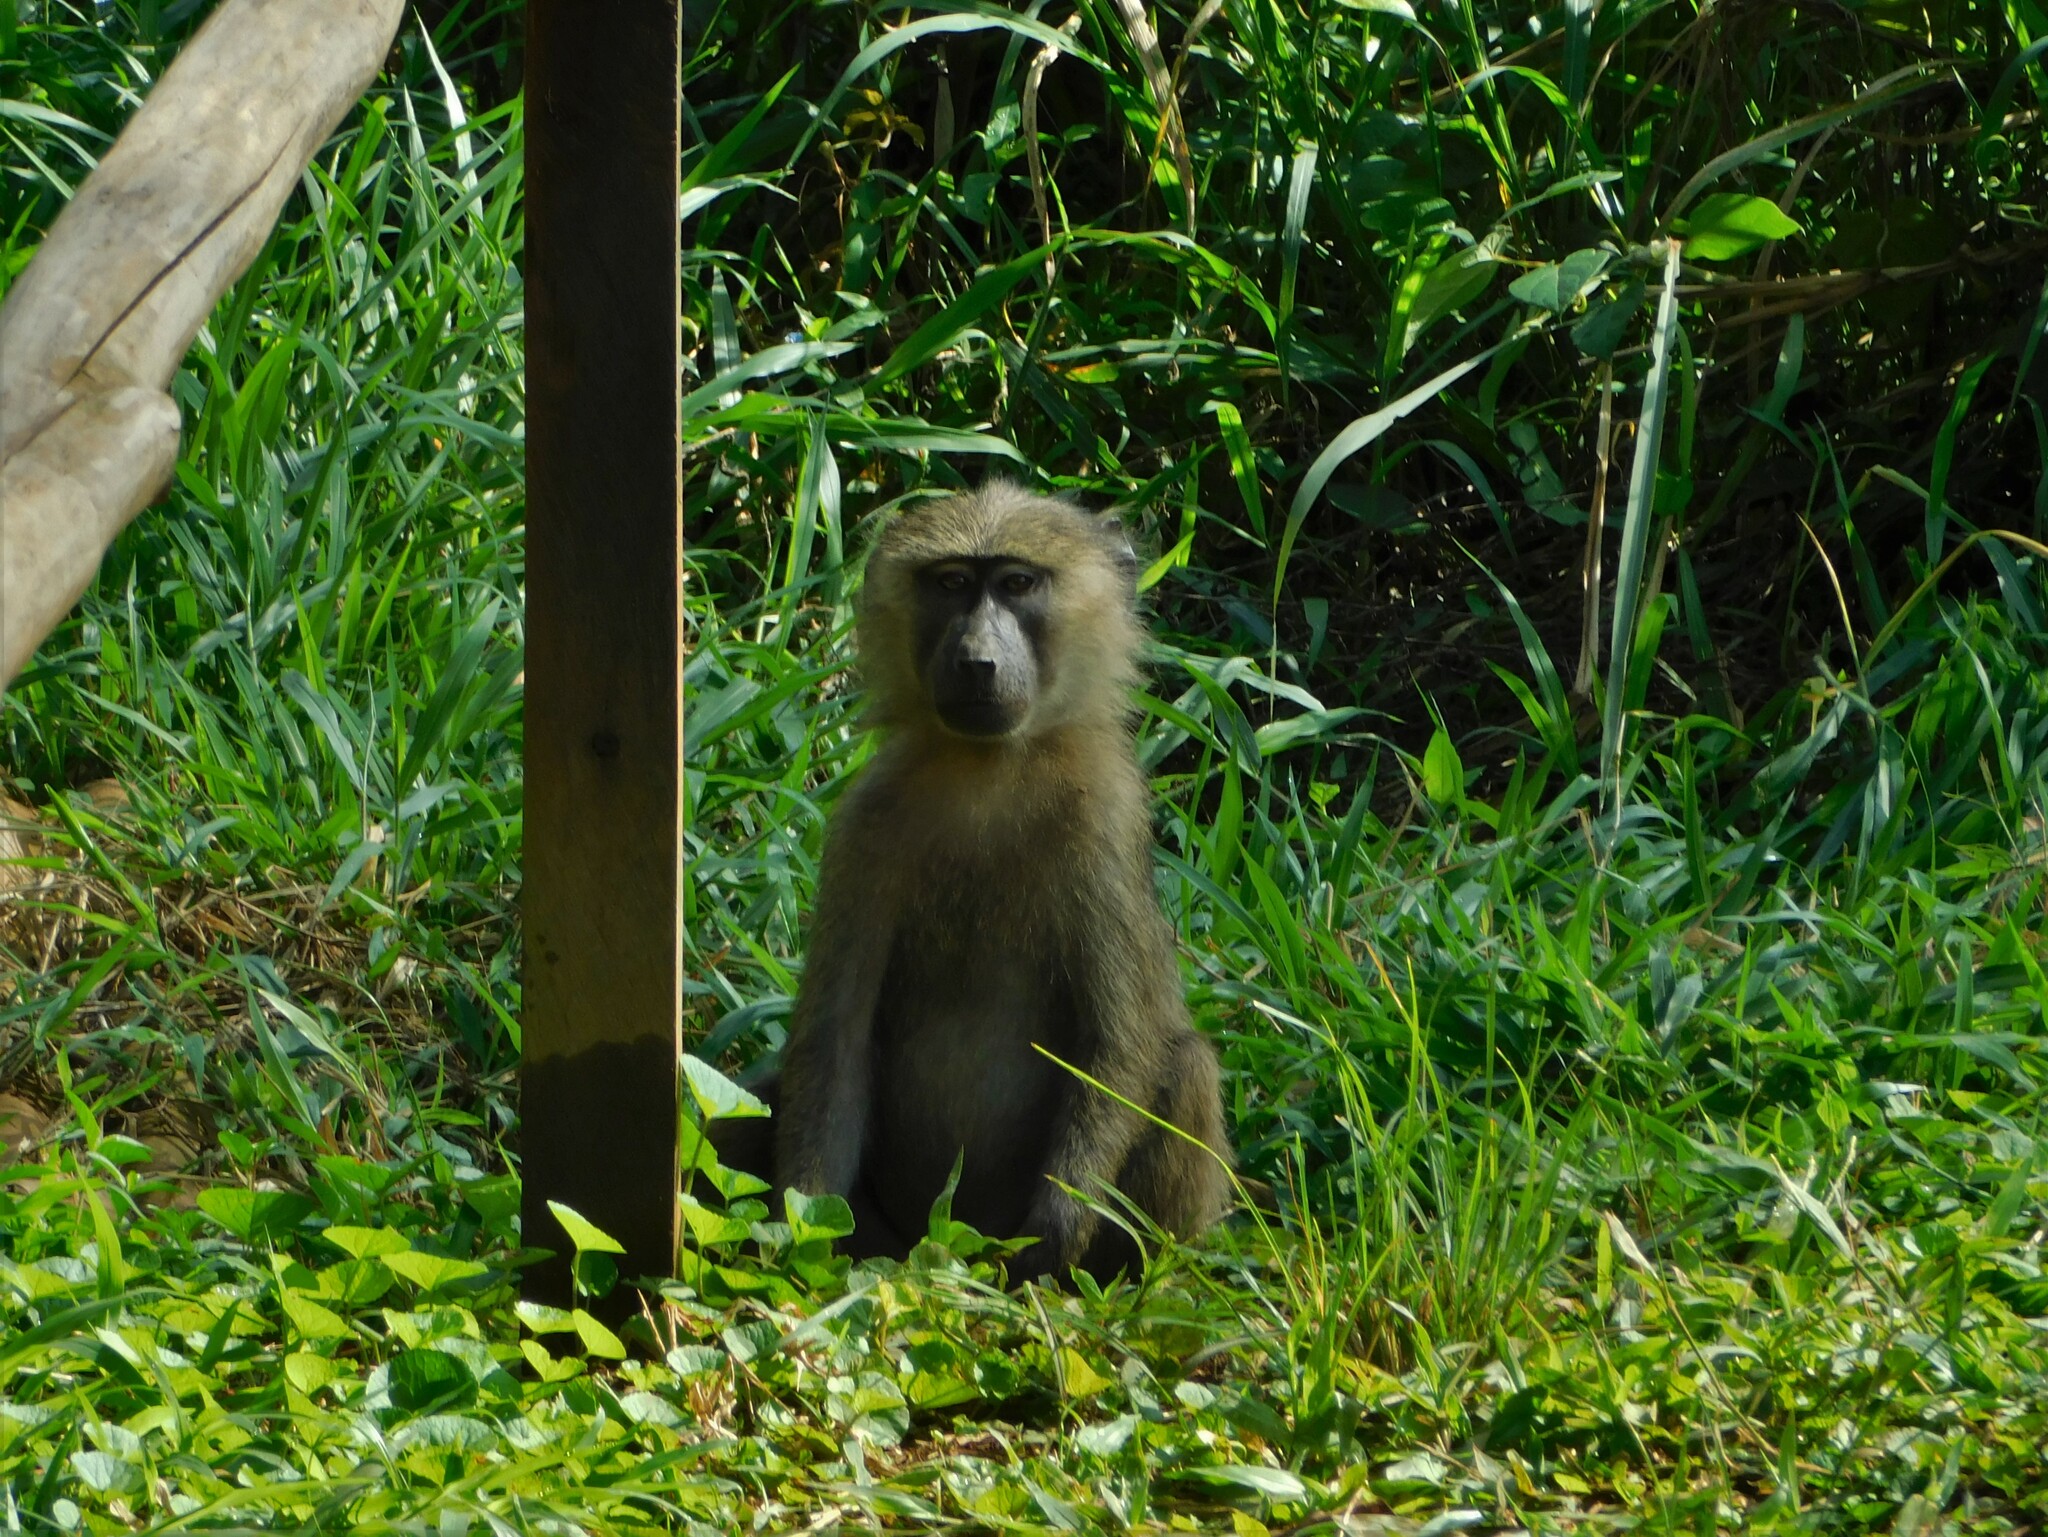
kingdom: Animalia
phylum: Chordata
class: Mammalia
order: Primates
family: Cercopithecidae
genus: Papio
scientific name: Papio anubis
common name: Olive baboon
